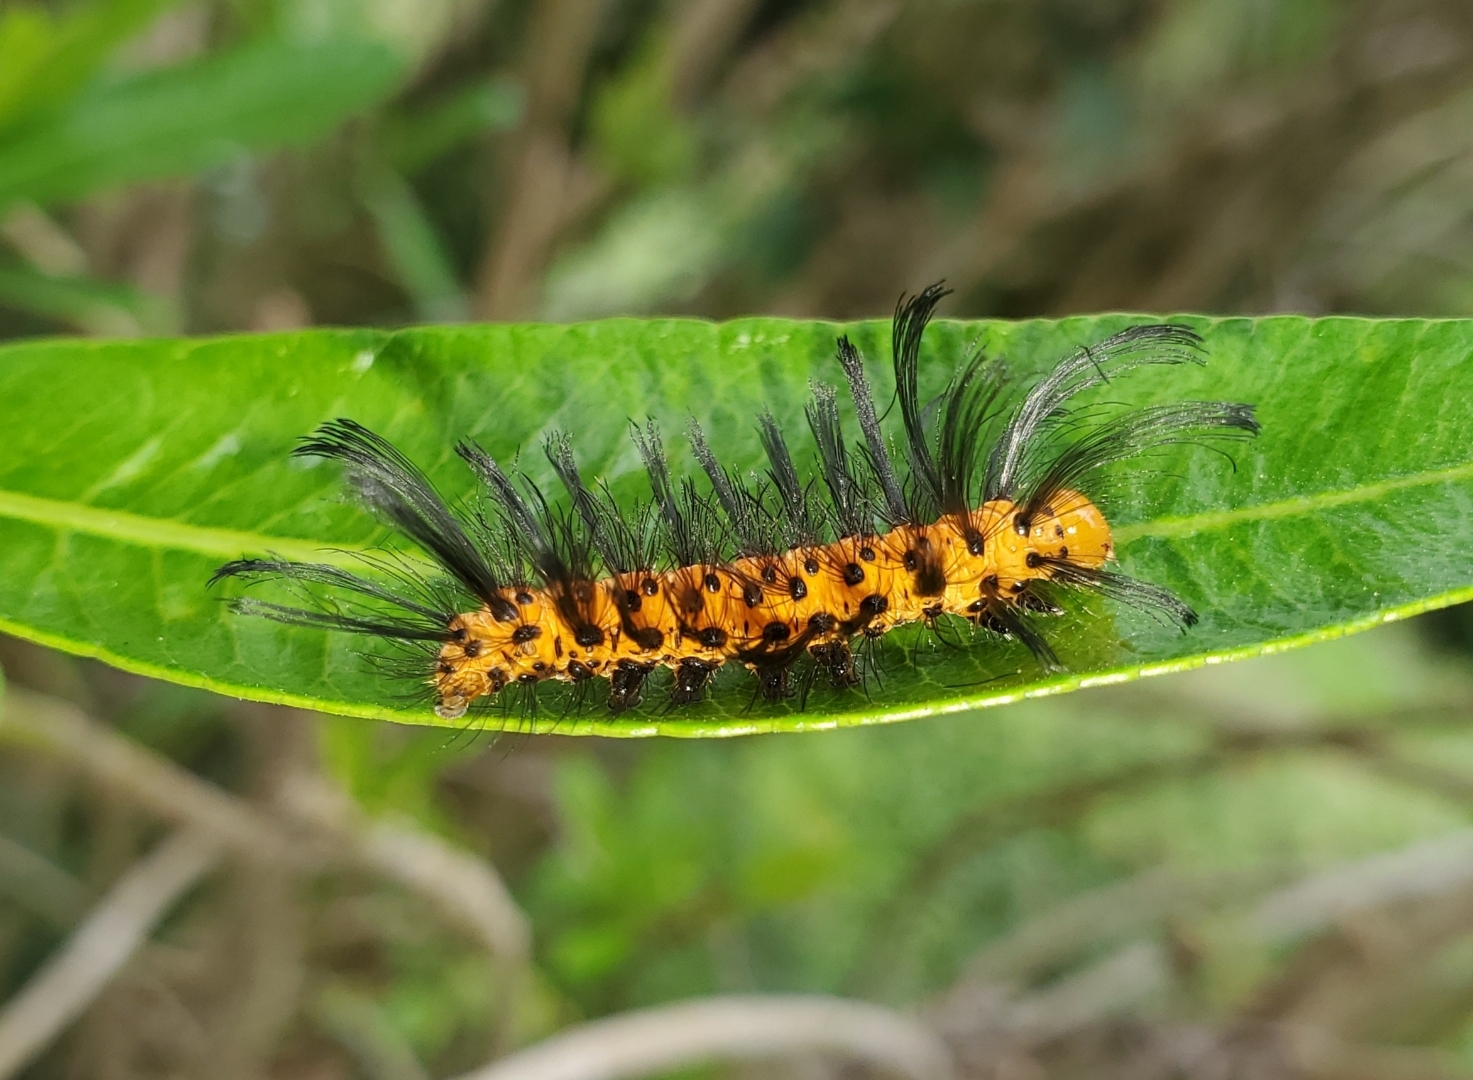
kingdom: Animalia
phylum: Arthropoda
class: Insecta
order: Lepidoptera
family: Erebidae
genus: Syntomeida
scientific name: Syntomeida epilais
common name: Polka-dot wasp moth
